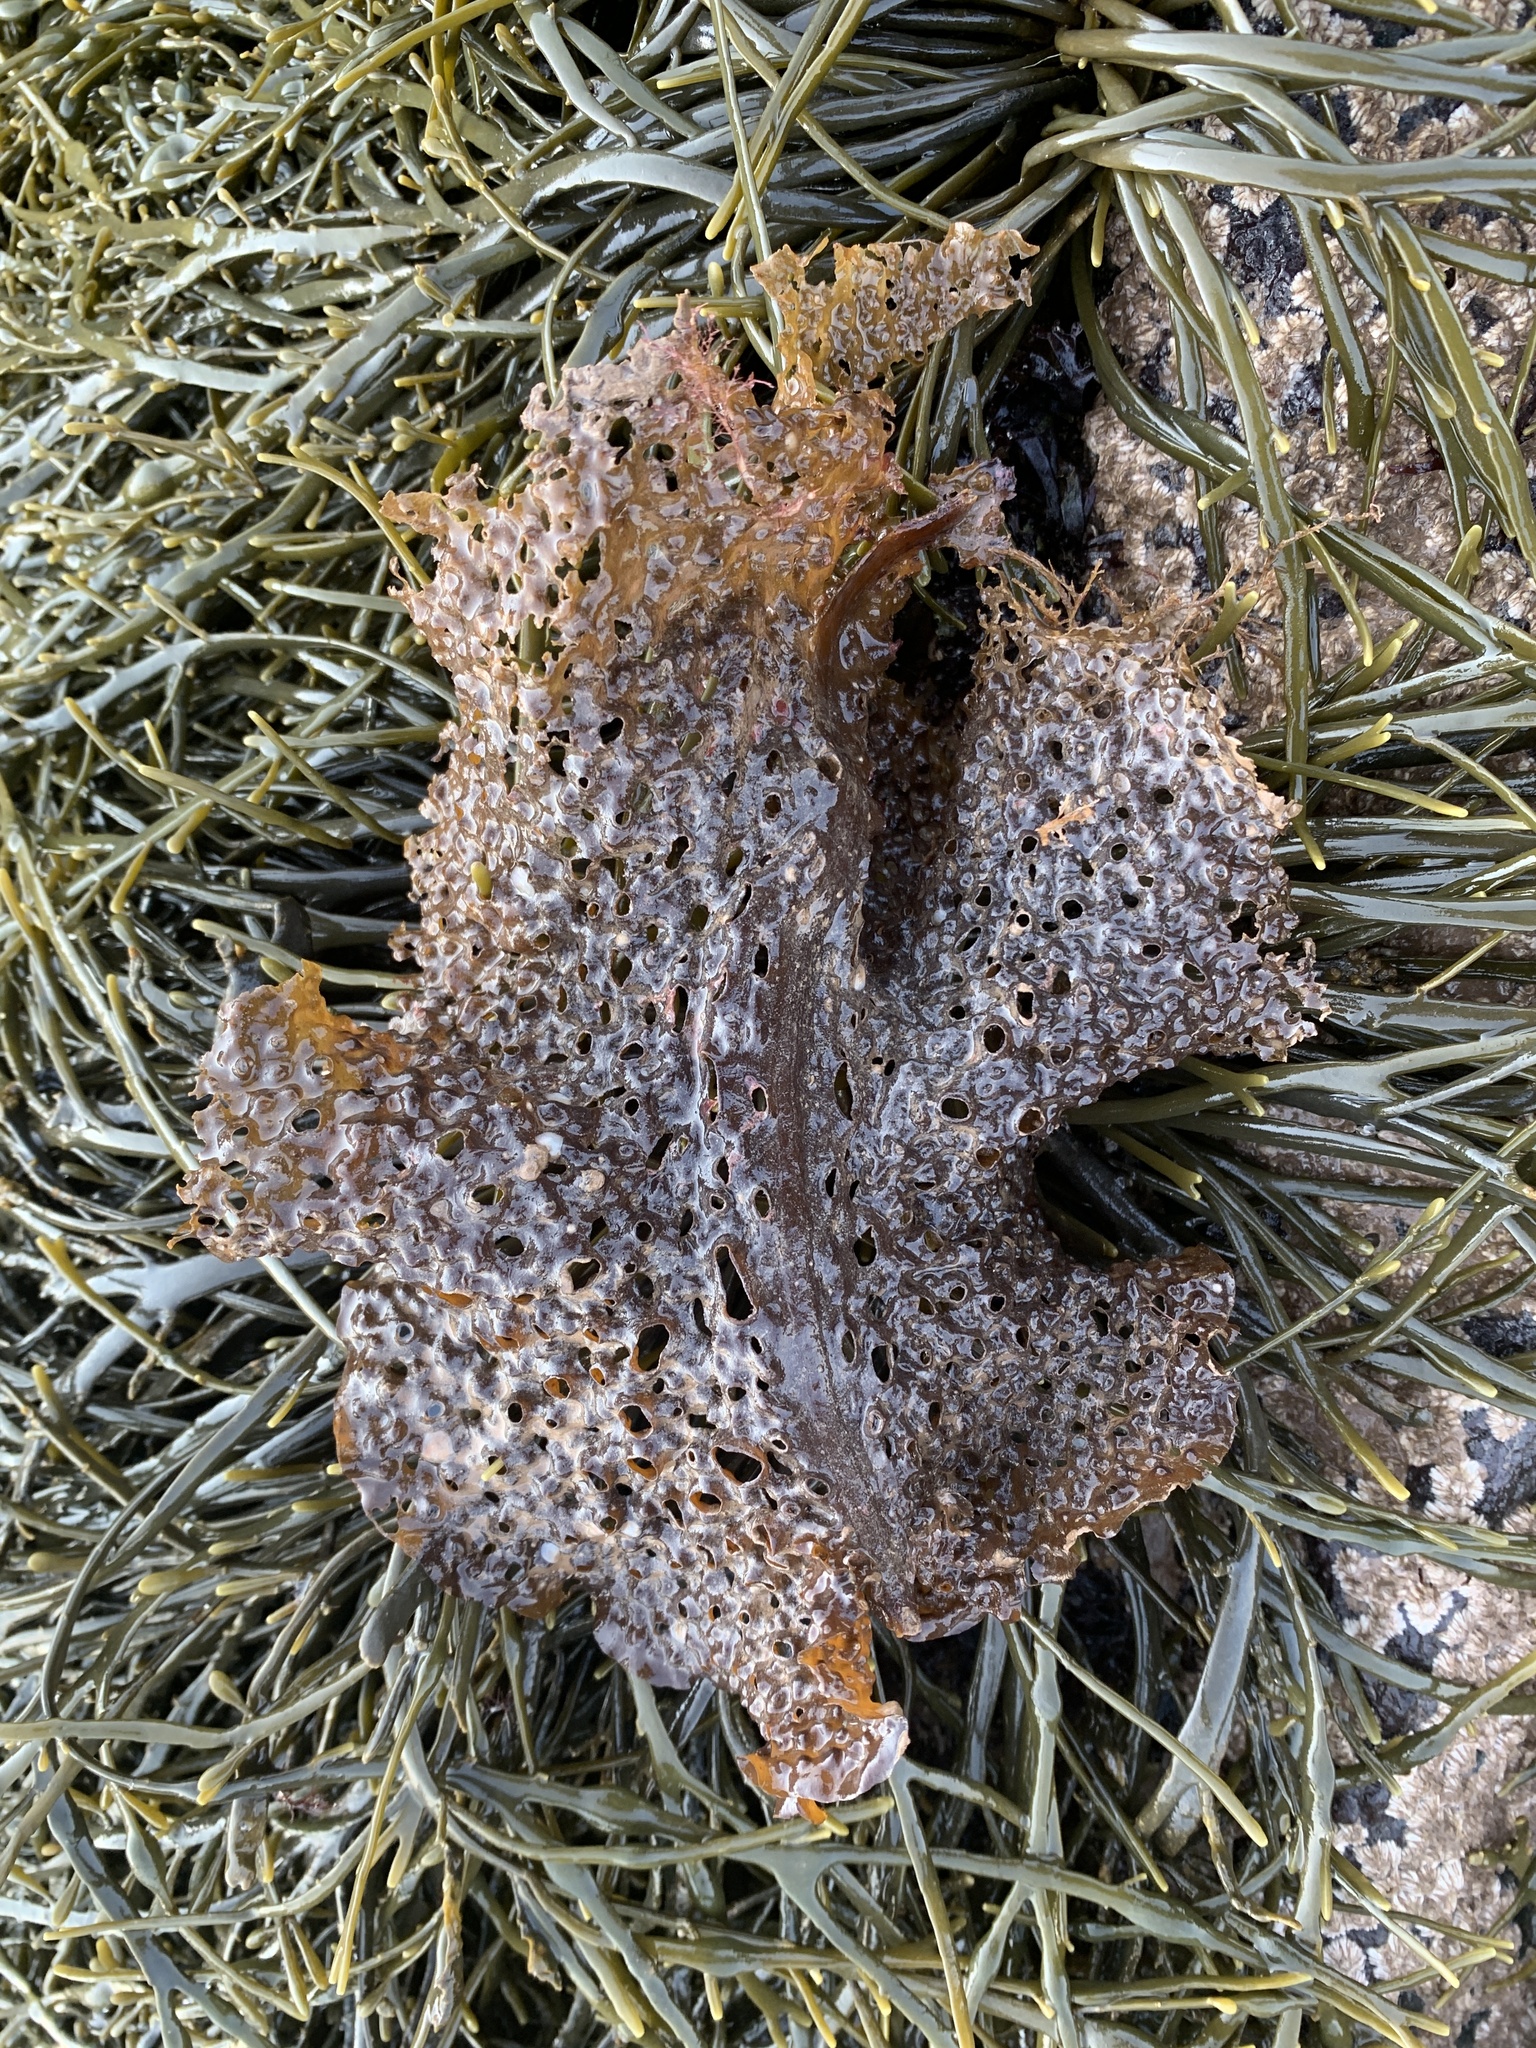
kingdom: Chromista
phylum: Ochrophyta
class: Phaeophyceae
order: Laminariales
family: Costariaceae
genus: Agarum
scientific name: Agarum clathratum
